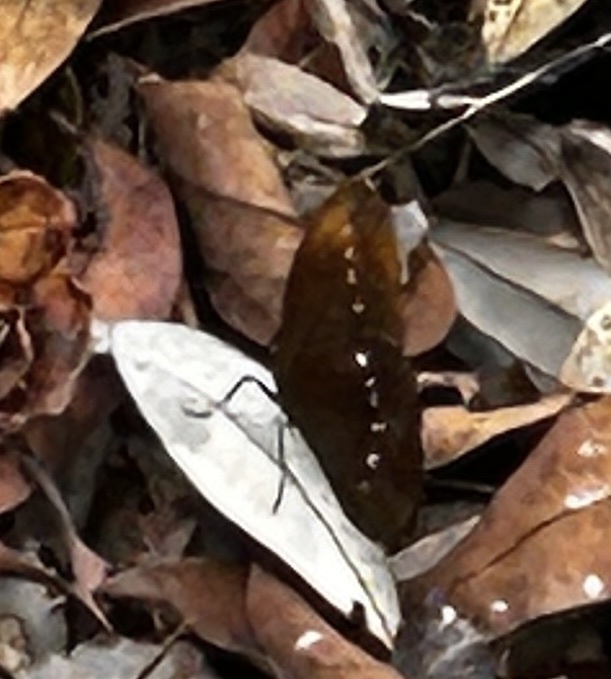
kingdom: Animalia
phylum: Arthropoda
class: Insecta
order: Lepidoptera
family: Nymphalidae
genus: Faunis
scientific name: Faunis eumeus
